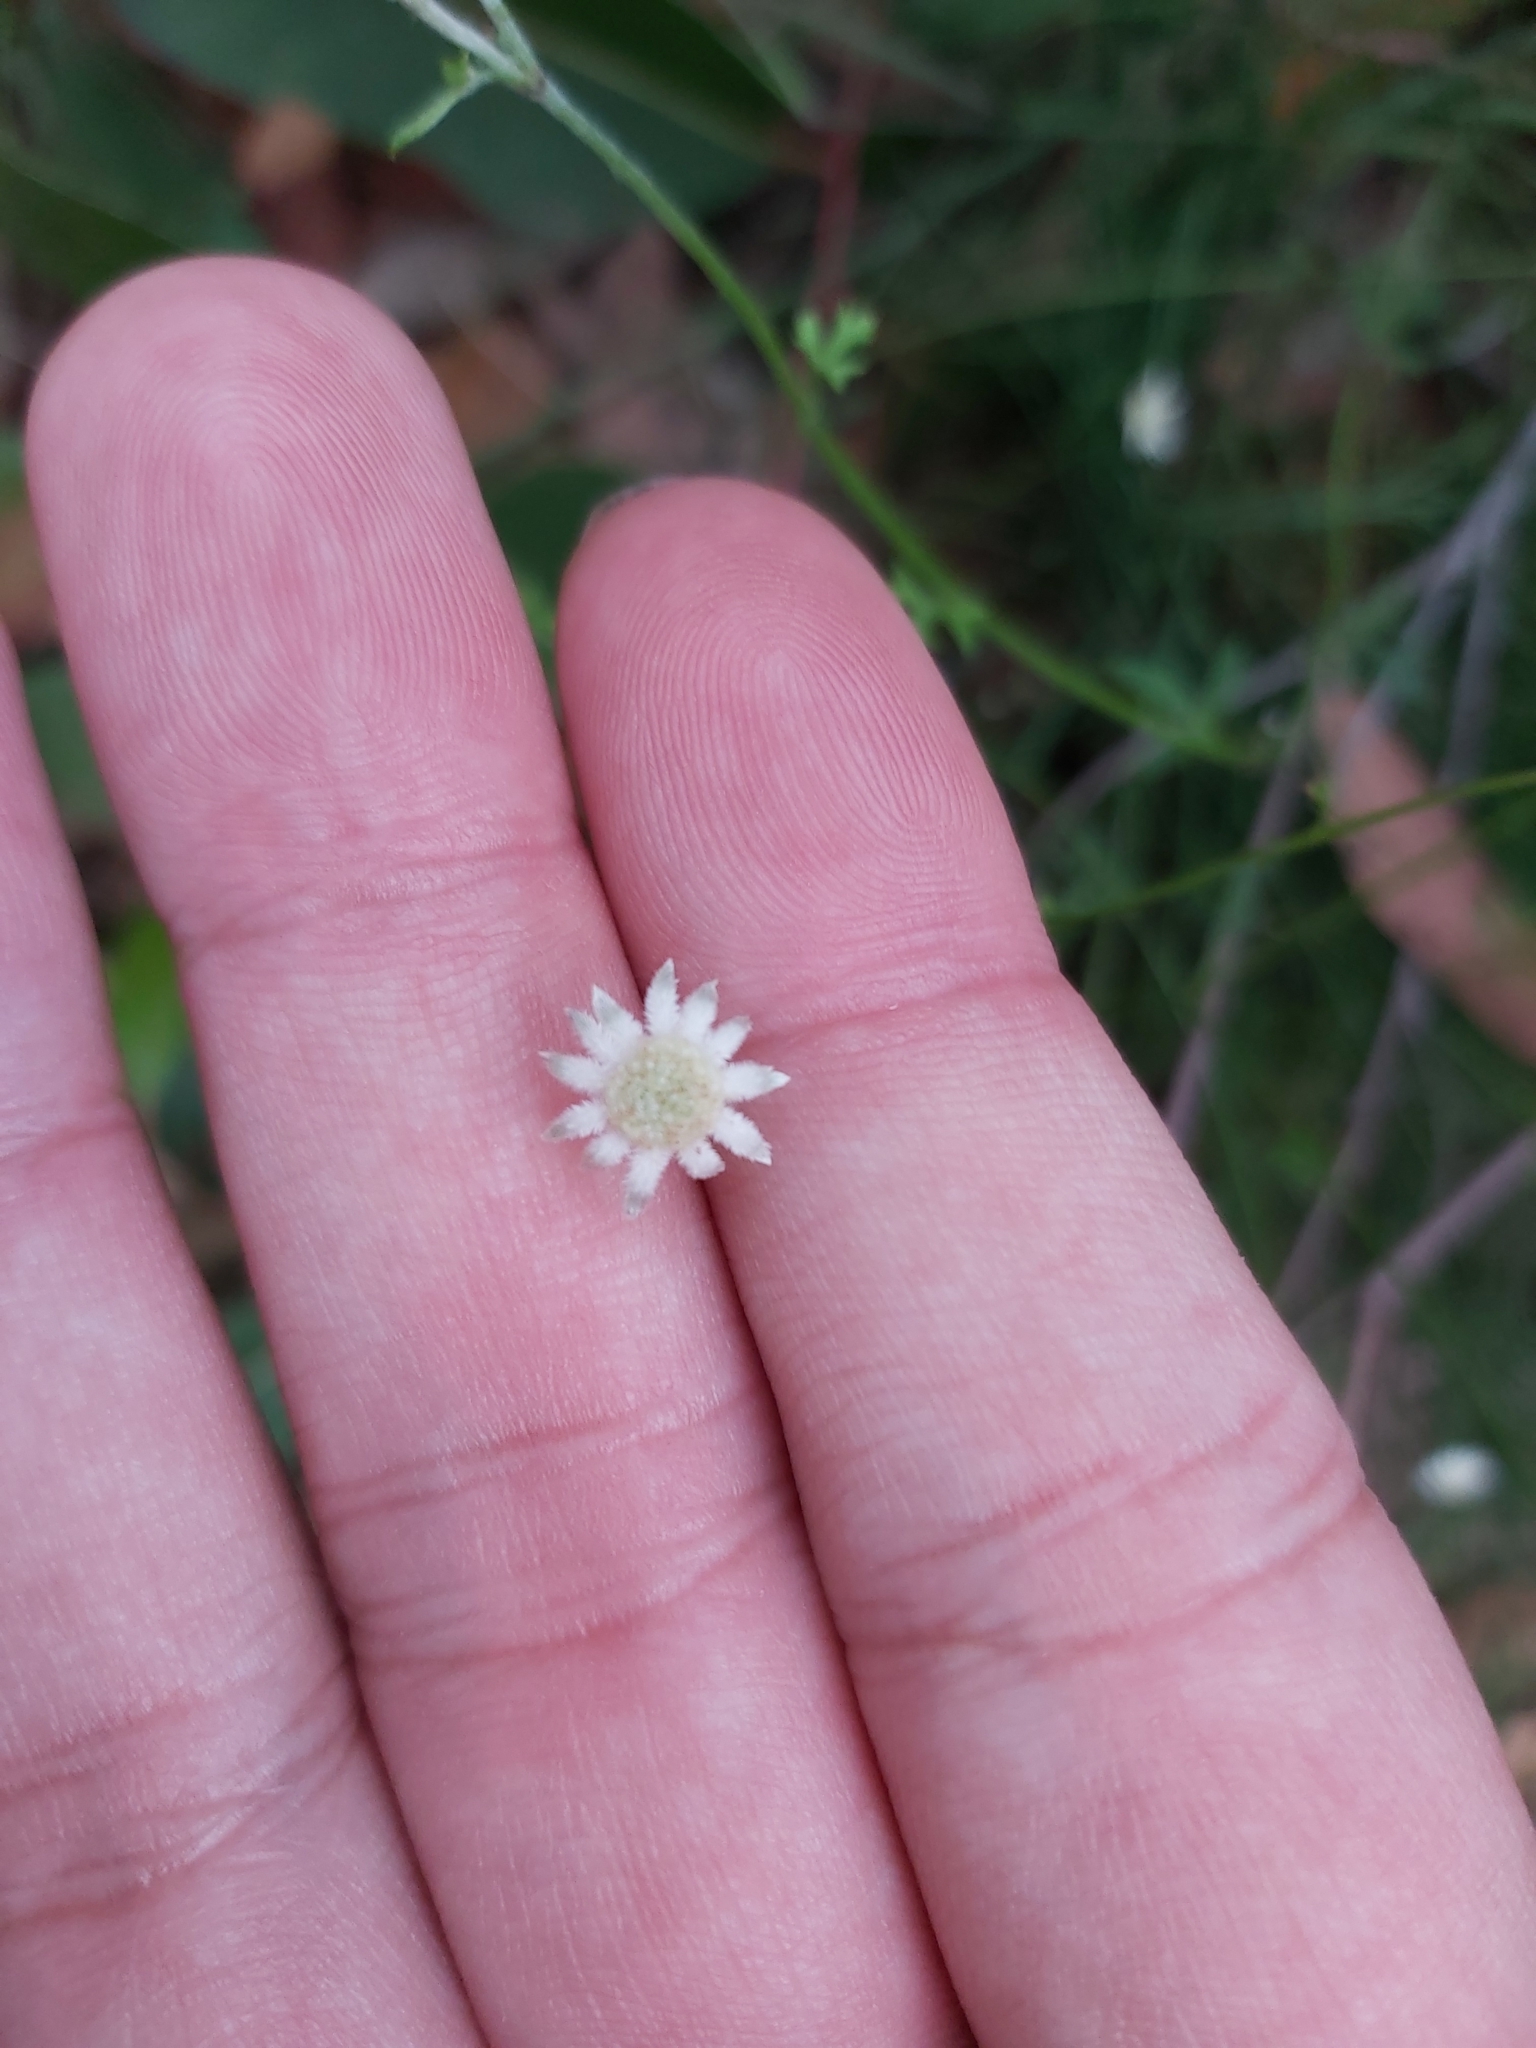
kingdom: Plantae
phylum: Tracheophyta
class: Magnoliopsida
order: Apiales
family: Apiaceae
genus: Actinotus
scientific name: Actinotus minor
